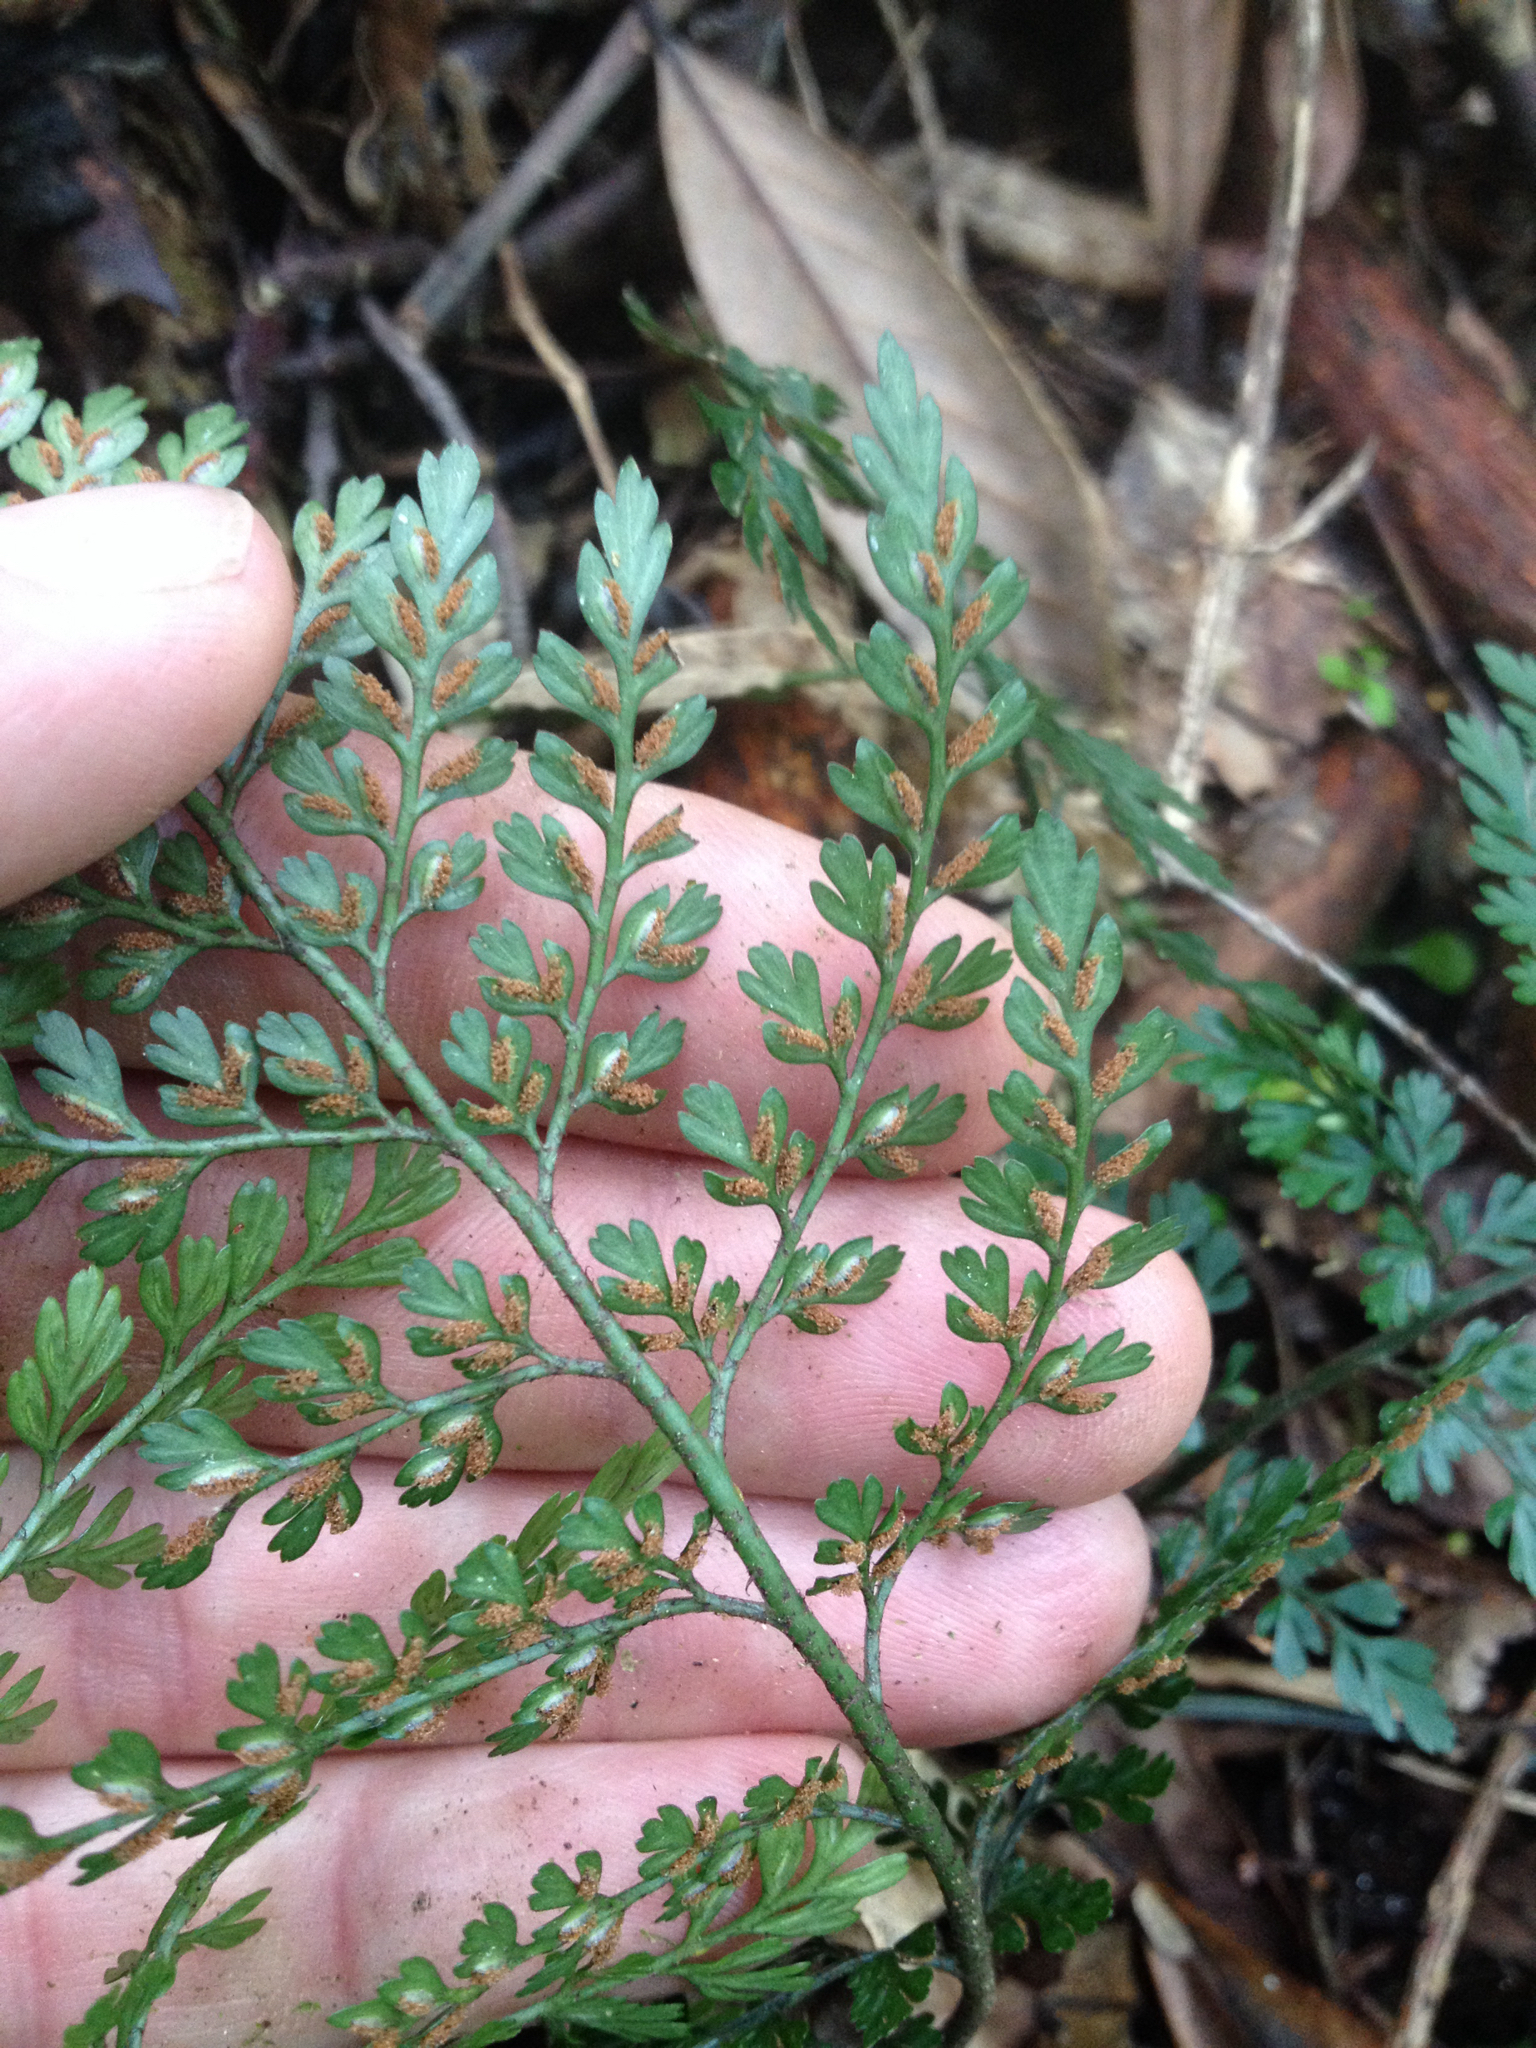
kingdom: Plantae
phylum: Tracheophyta
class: Polypodiopsida
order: Polypodiales
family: Aspleniaceae
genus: Asplenium
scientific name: Asplenium hookerianum
